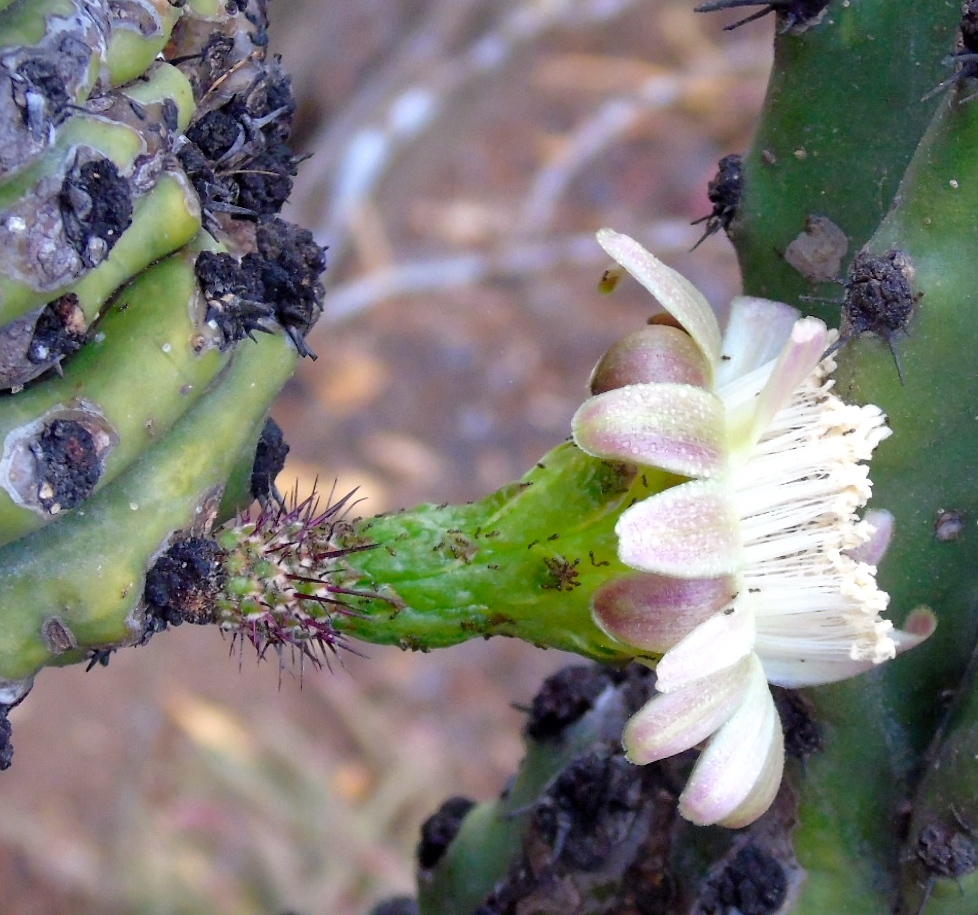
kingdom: Plantae
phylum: Tracheophyta
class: Magnoliopsida
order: Caryophyllales
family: Cactaceae
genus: Stenocereus
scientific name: Stenocereus martinezii
